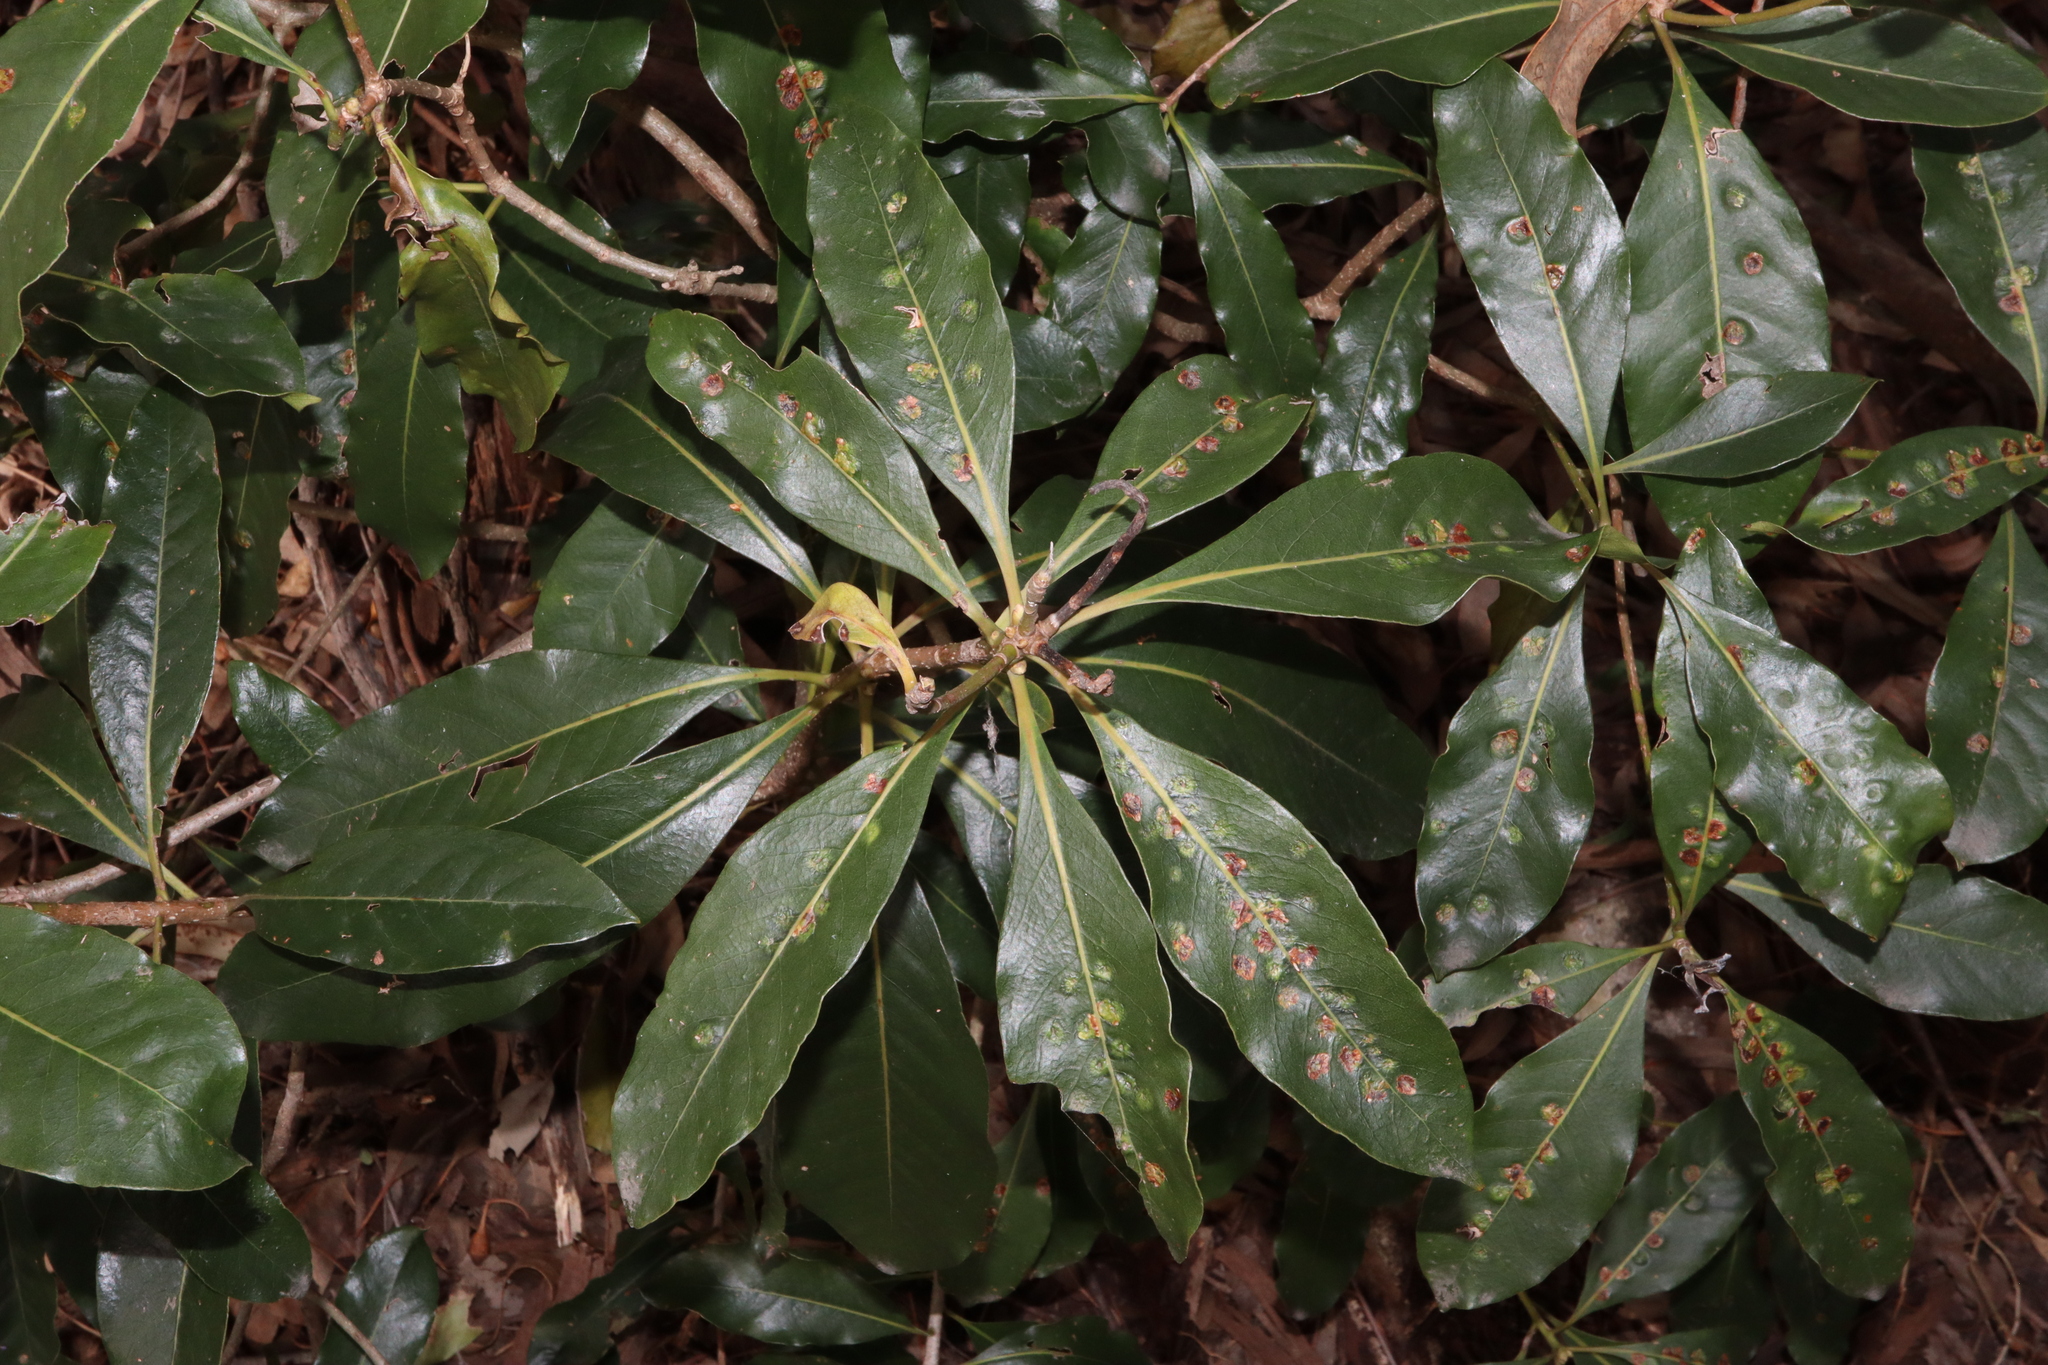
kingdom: Animalia
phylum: Arthropoda
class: Insecta
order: Diptera
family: Agromyzidae
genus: Phytoliriomyza
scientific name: Phytoliriomyza pittosporophylli
